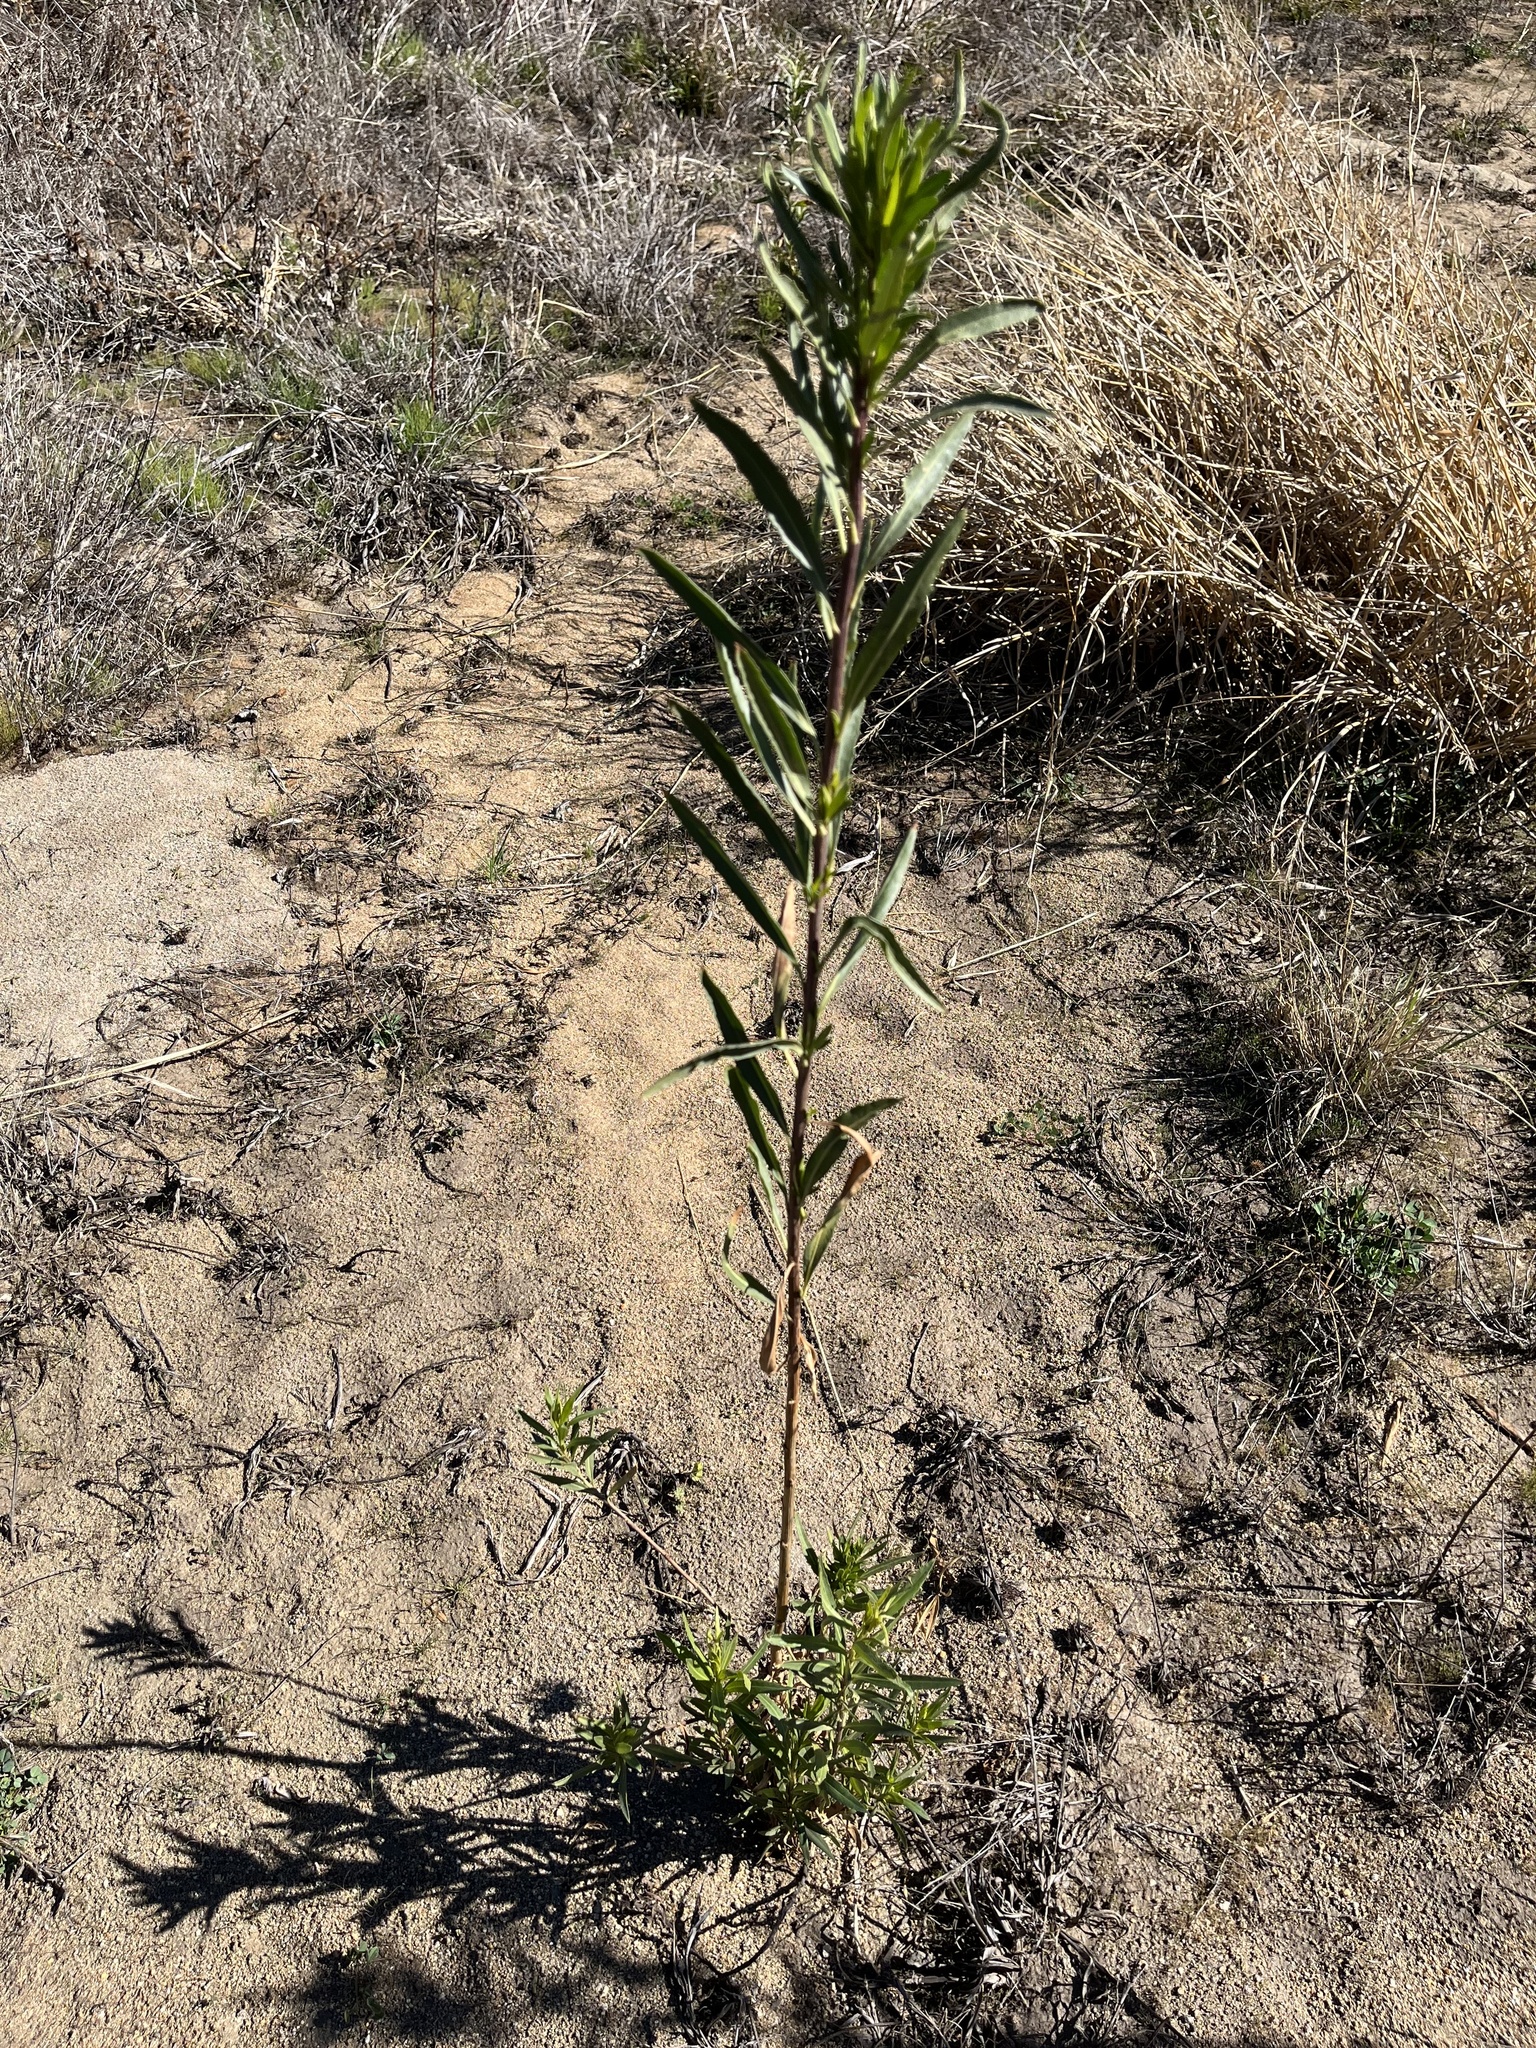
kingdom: Plantae
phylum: Tracheophyta
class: Magnoliopsida
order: Asterales
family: Asteraceae
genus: Baccharis
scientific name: Baccharis salicifolia
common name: Sticky baccharis
